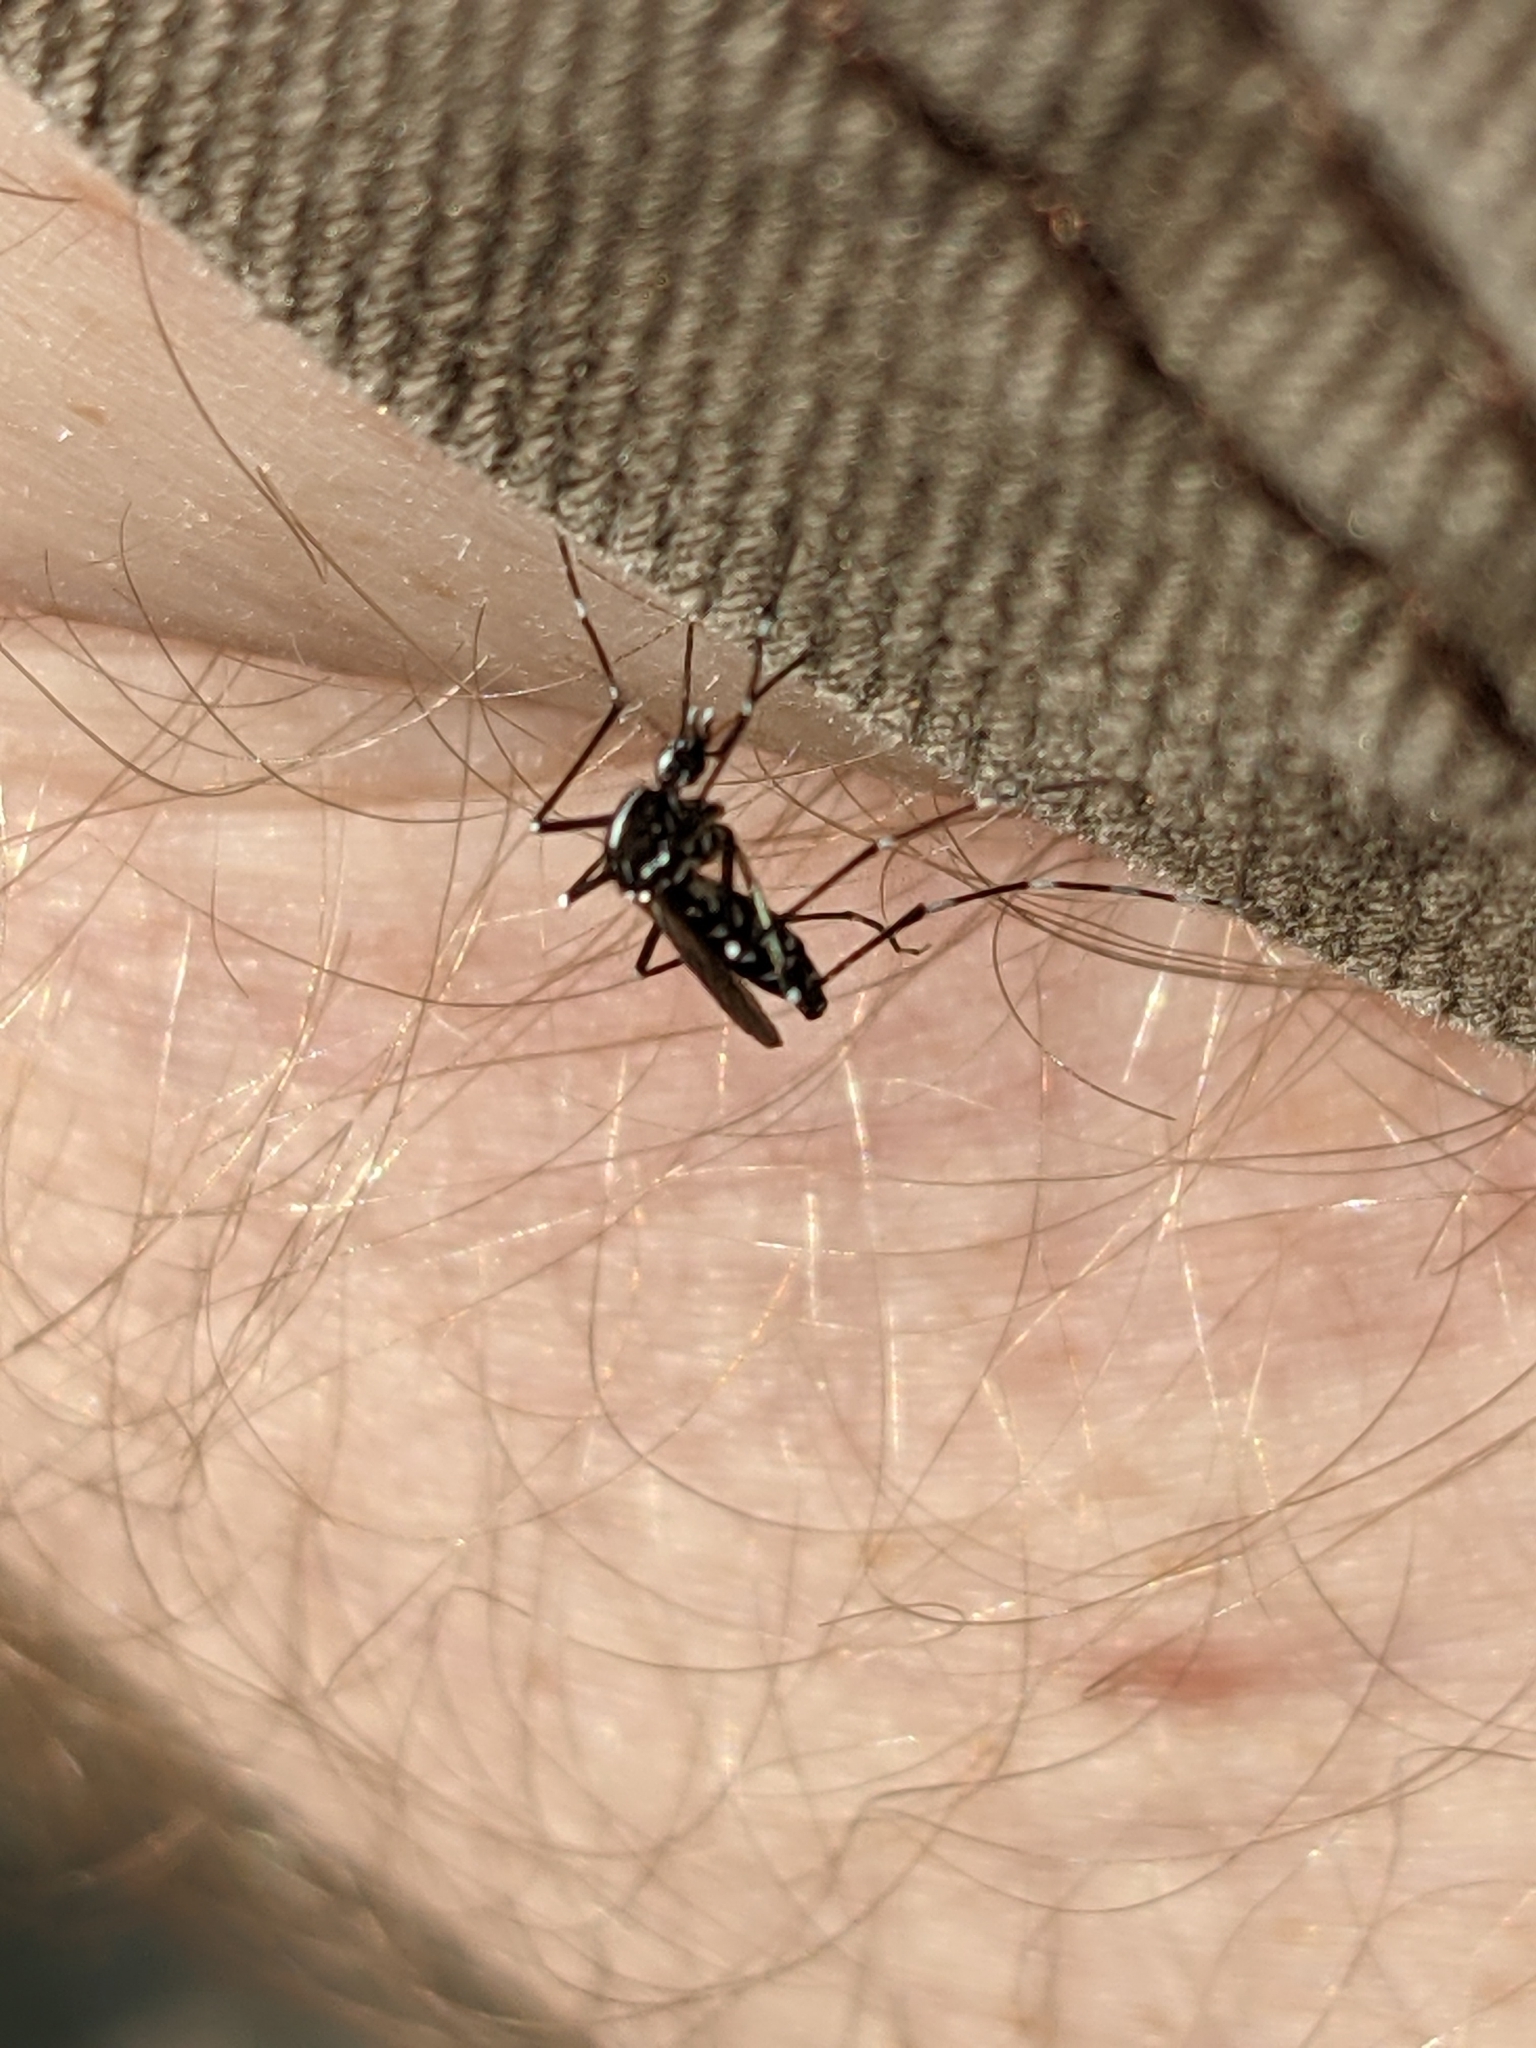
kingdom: Animalia
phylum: Arthropoda
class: Insecta
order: Diptera
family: Culicidae
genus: Aedes
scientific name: Aedes albopictus
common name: Tiger mosquito
